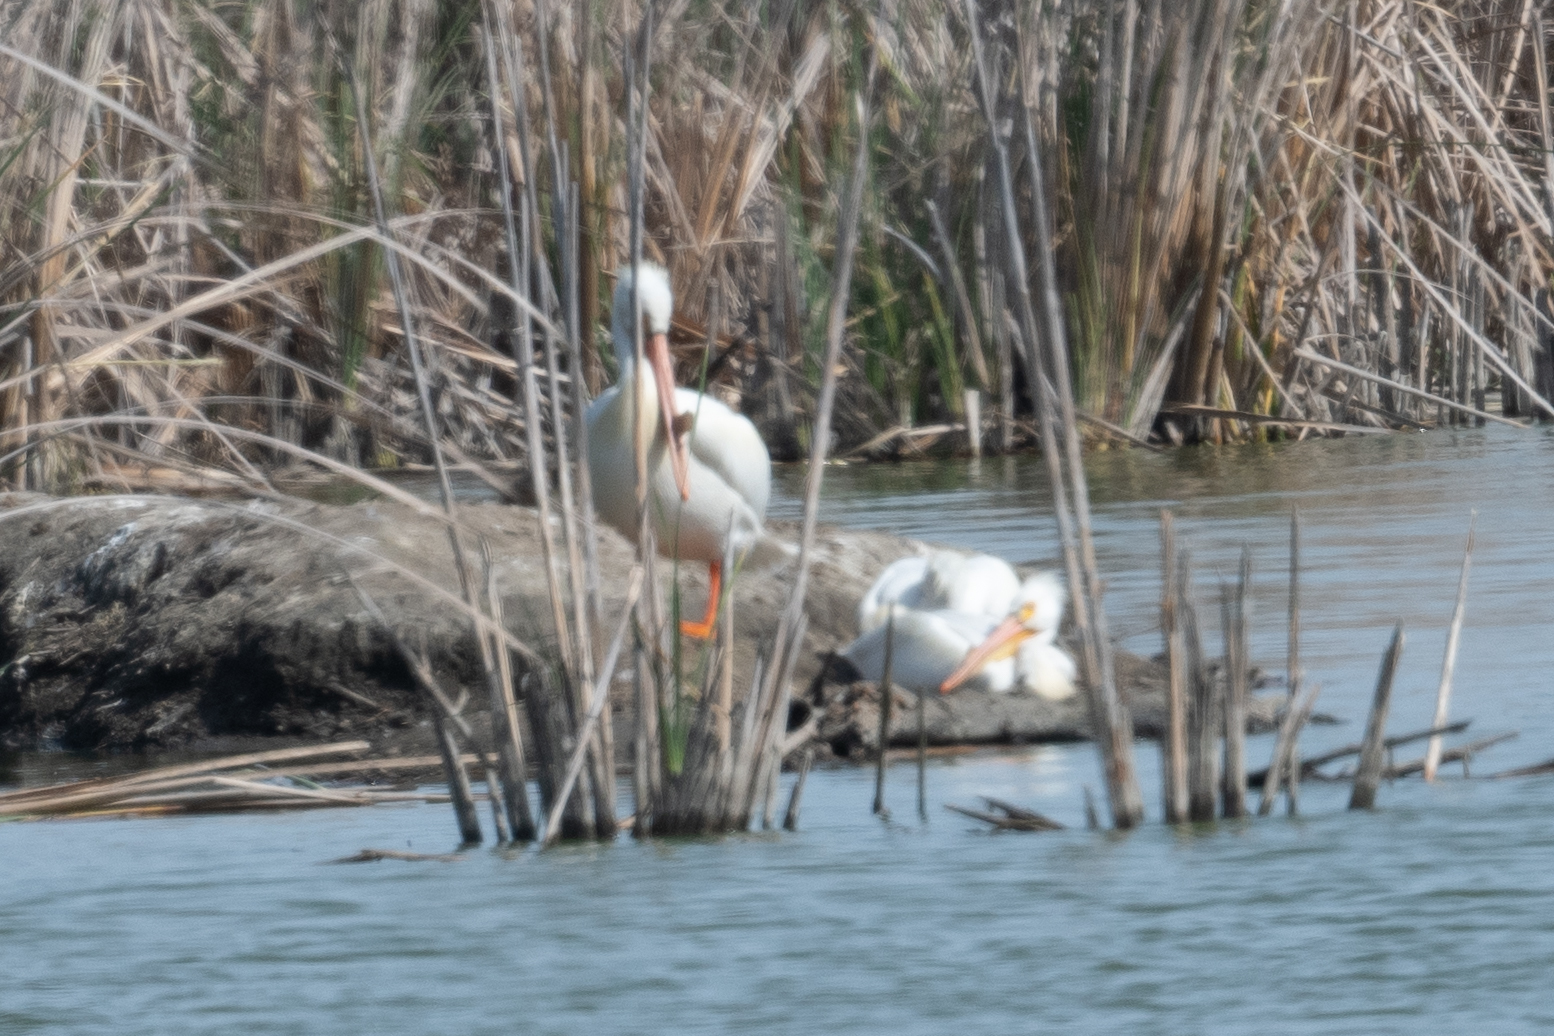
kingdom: Animalia
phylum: Chordata
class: Aves
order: Pelecaniformes
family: Pelecanidae
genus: Pelecanus
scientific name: Pelecanus erythrorhynchos
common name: American white pelican
